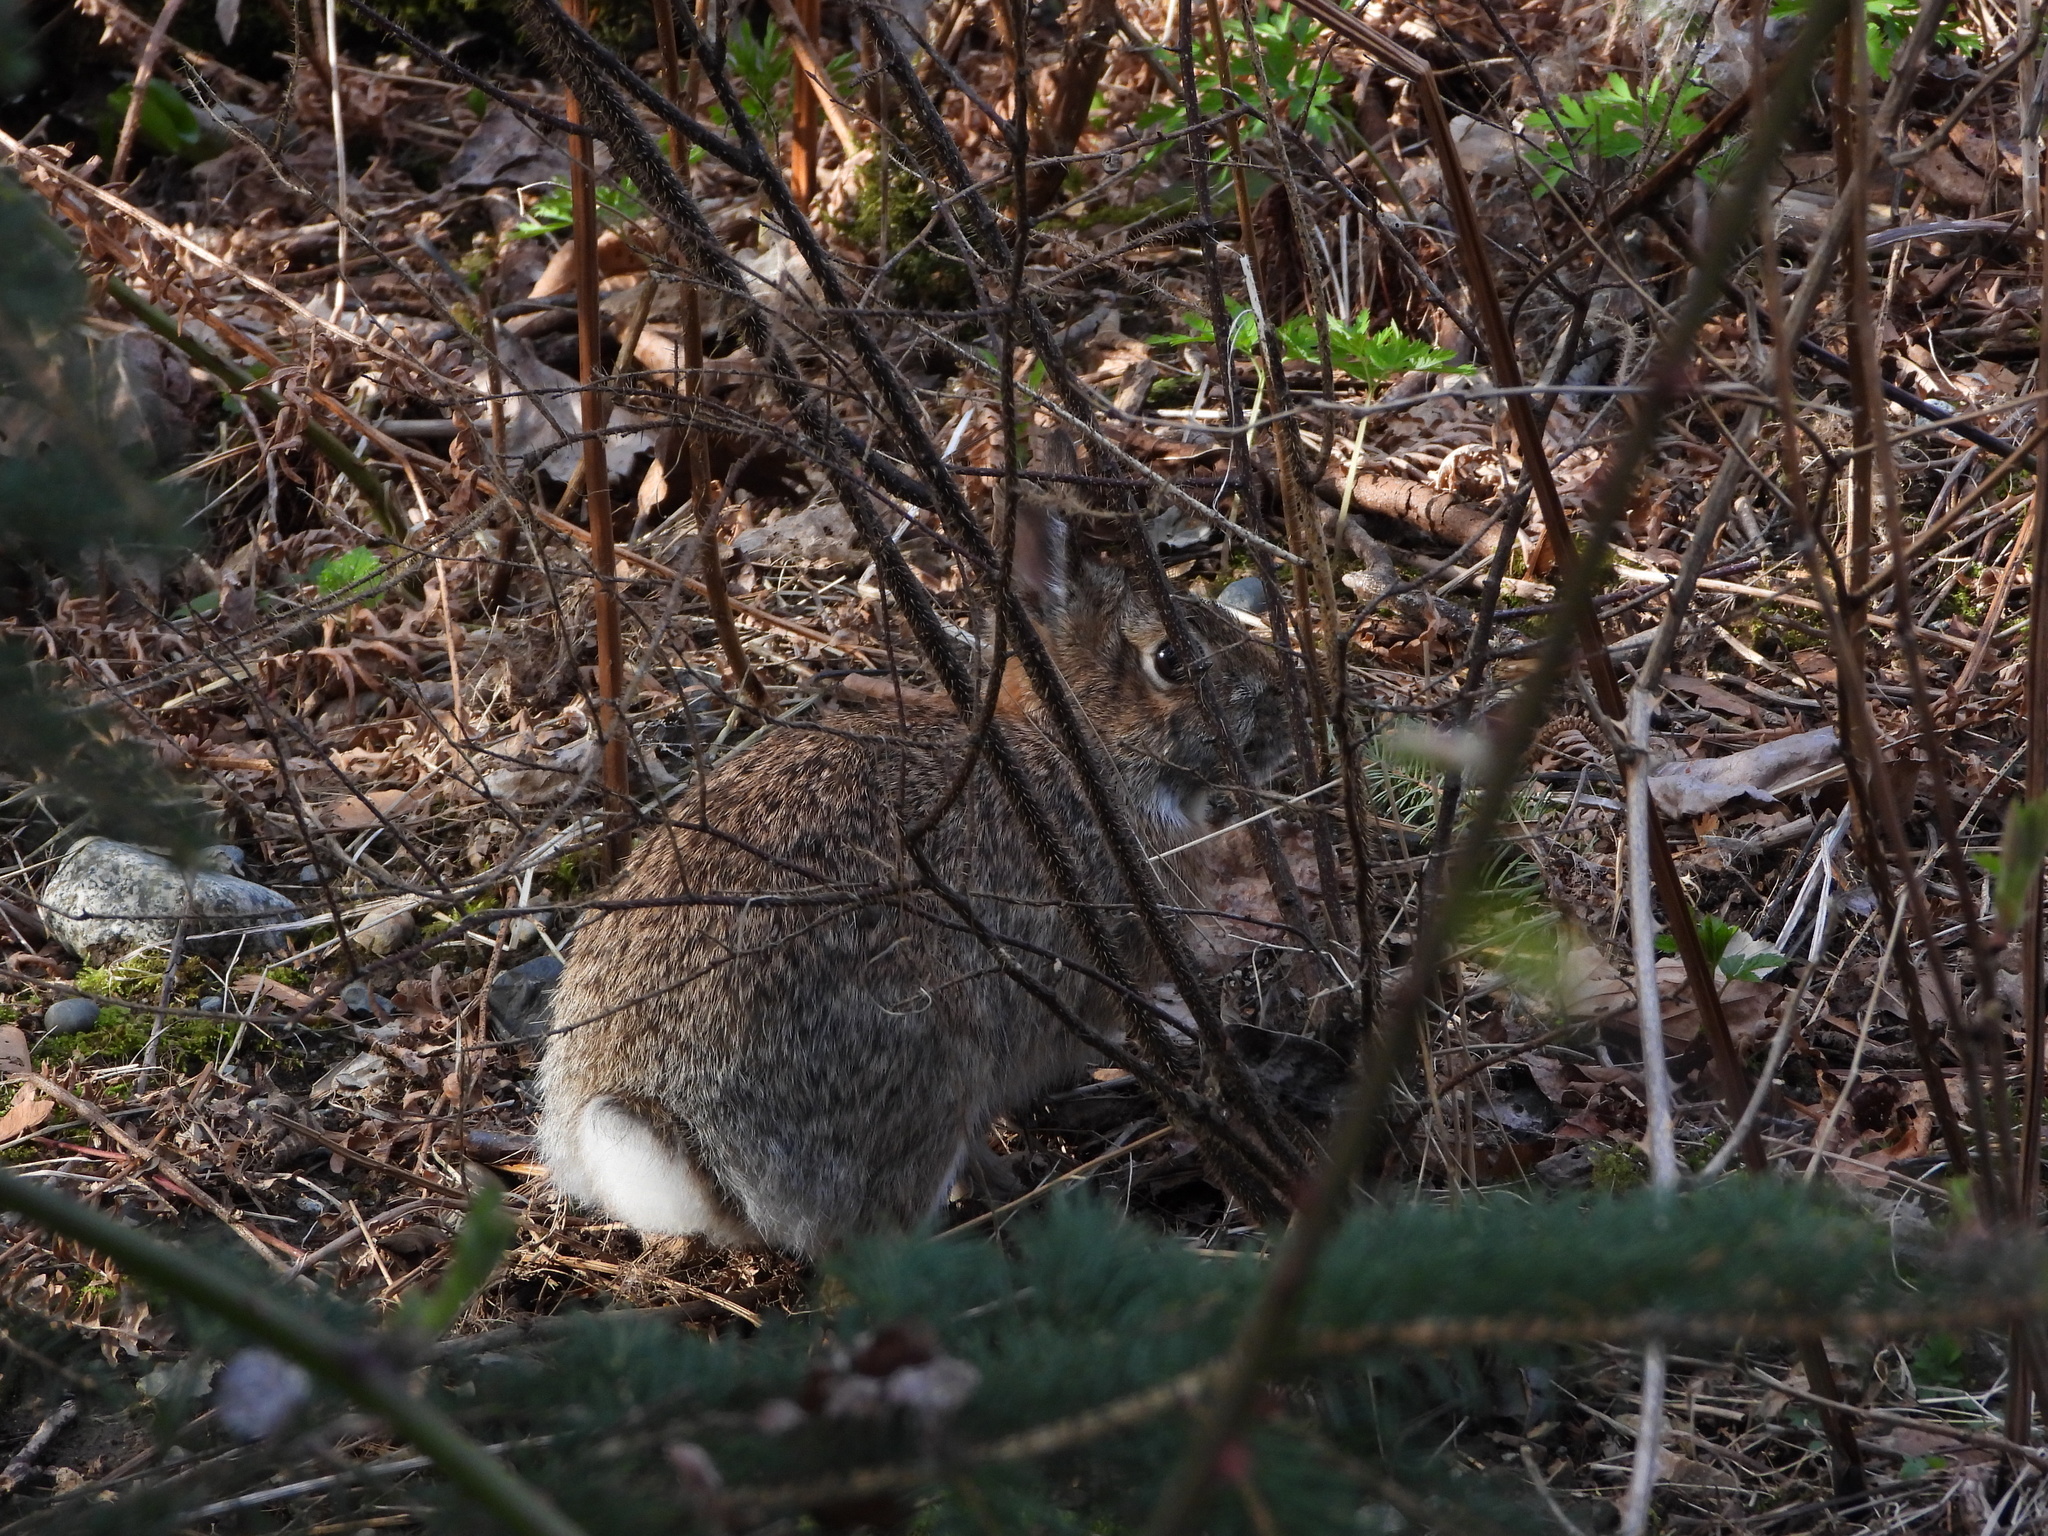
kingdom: Animalia
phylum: Chordata
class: Mammalia
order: Lagomorpha
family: Leporidae
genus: Sylvilagus
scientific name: Sylvilagus floridanus
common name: Eastern cottontail
